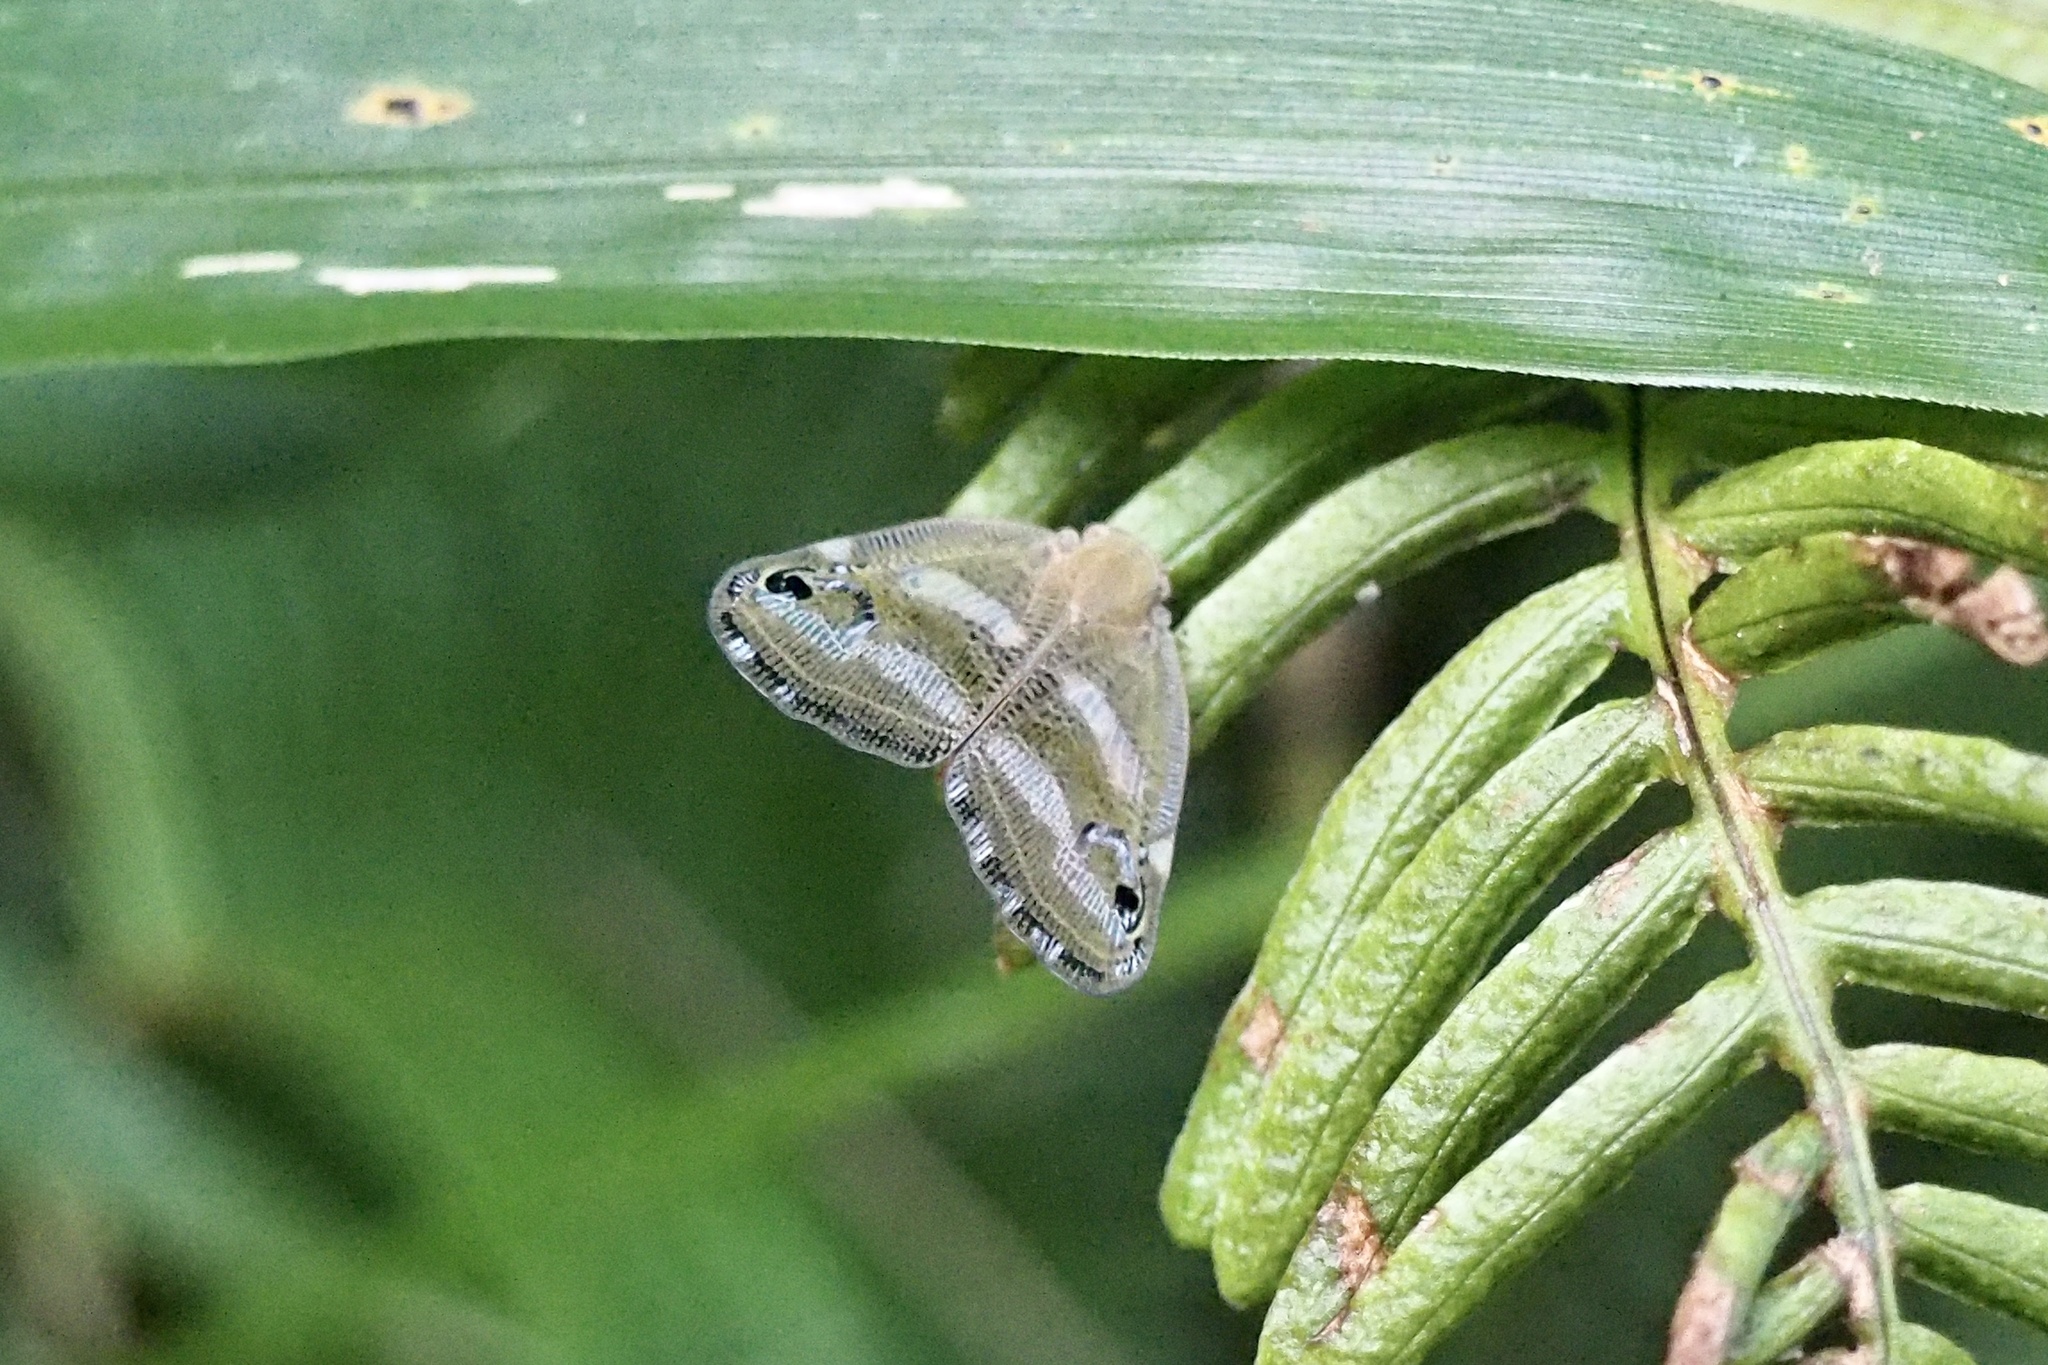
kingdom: Animalia
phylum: Arthropoda
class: Insecta
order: Hemiptera
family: Ricaniidae
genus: Orosanga
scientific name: Orosanga japonica
